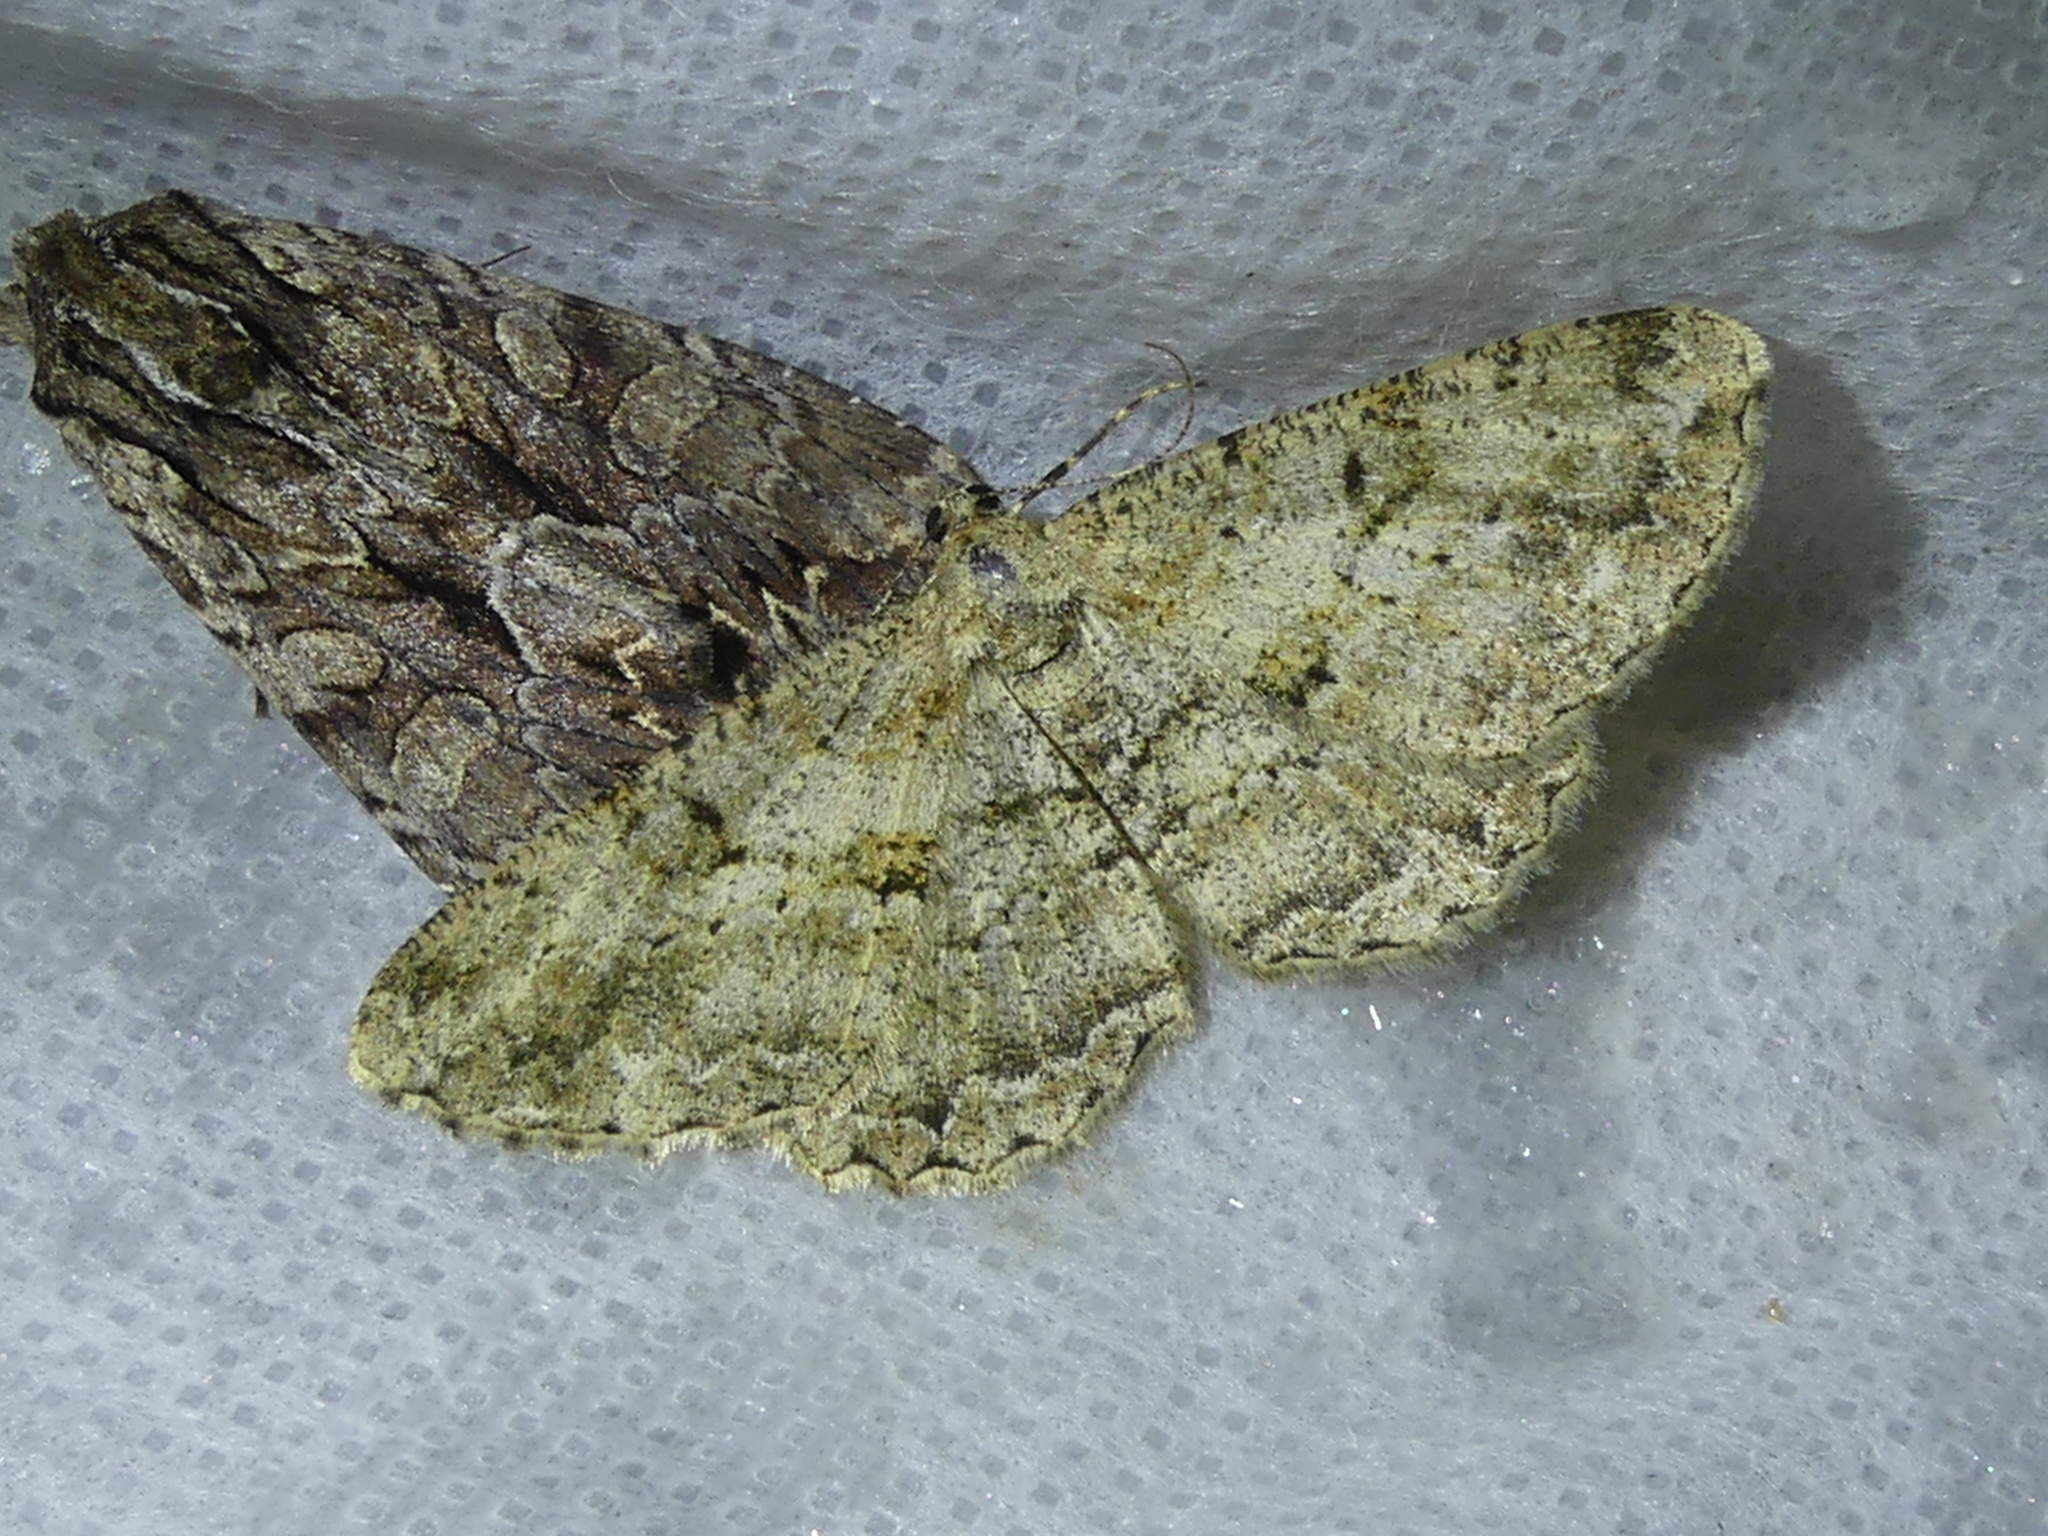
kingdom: Animalia
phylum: Arthropoda
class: Insecta
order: Lepidoptera
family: Geometridae
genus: Peribatodes
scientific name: Peribatodes rhomboidaria
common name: Willow beauty
